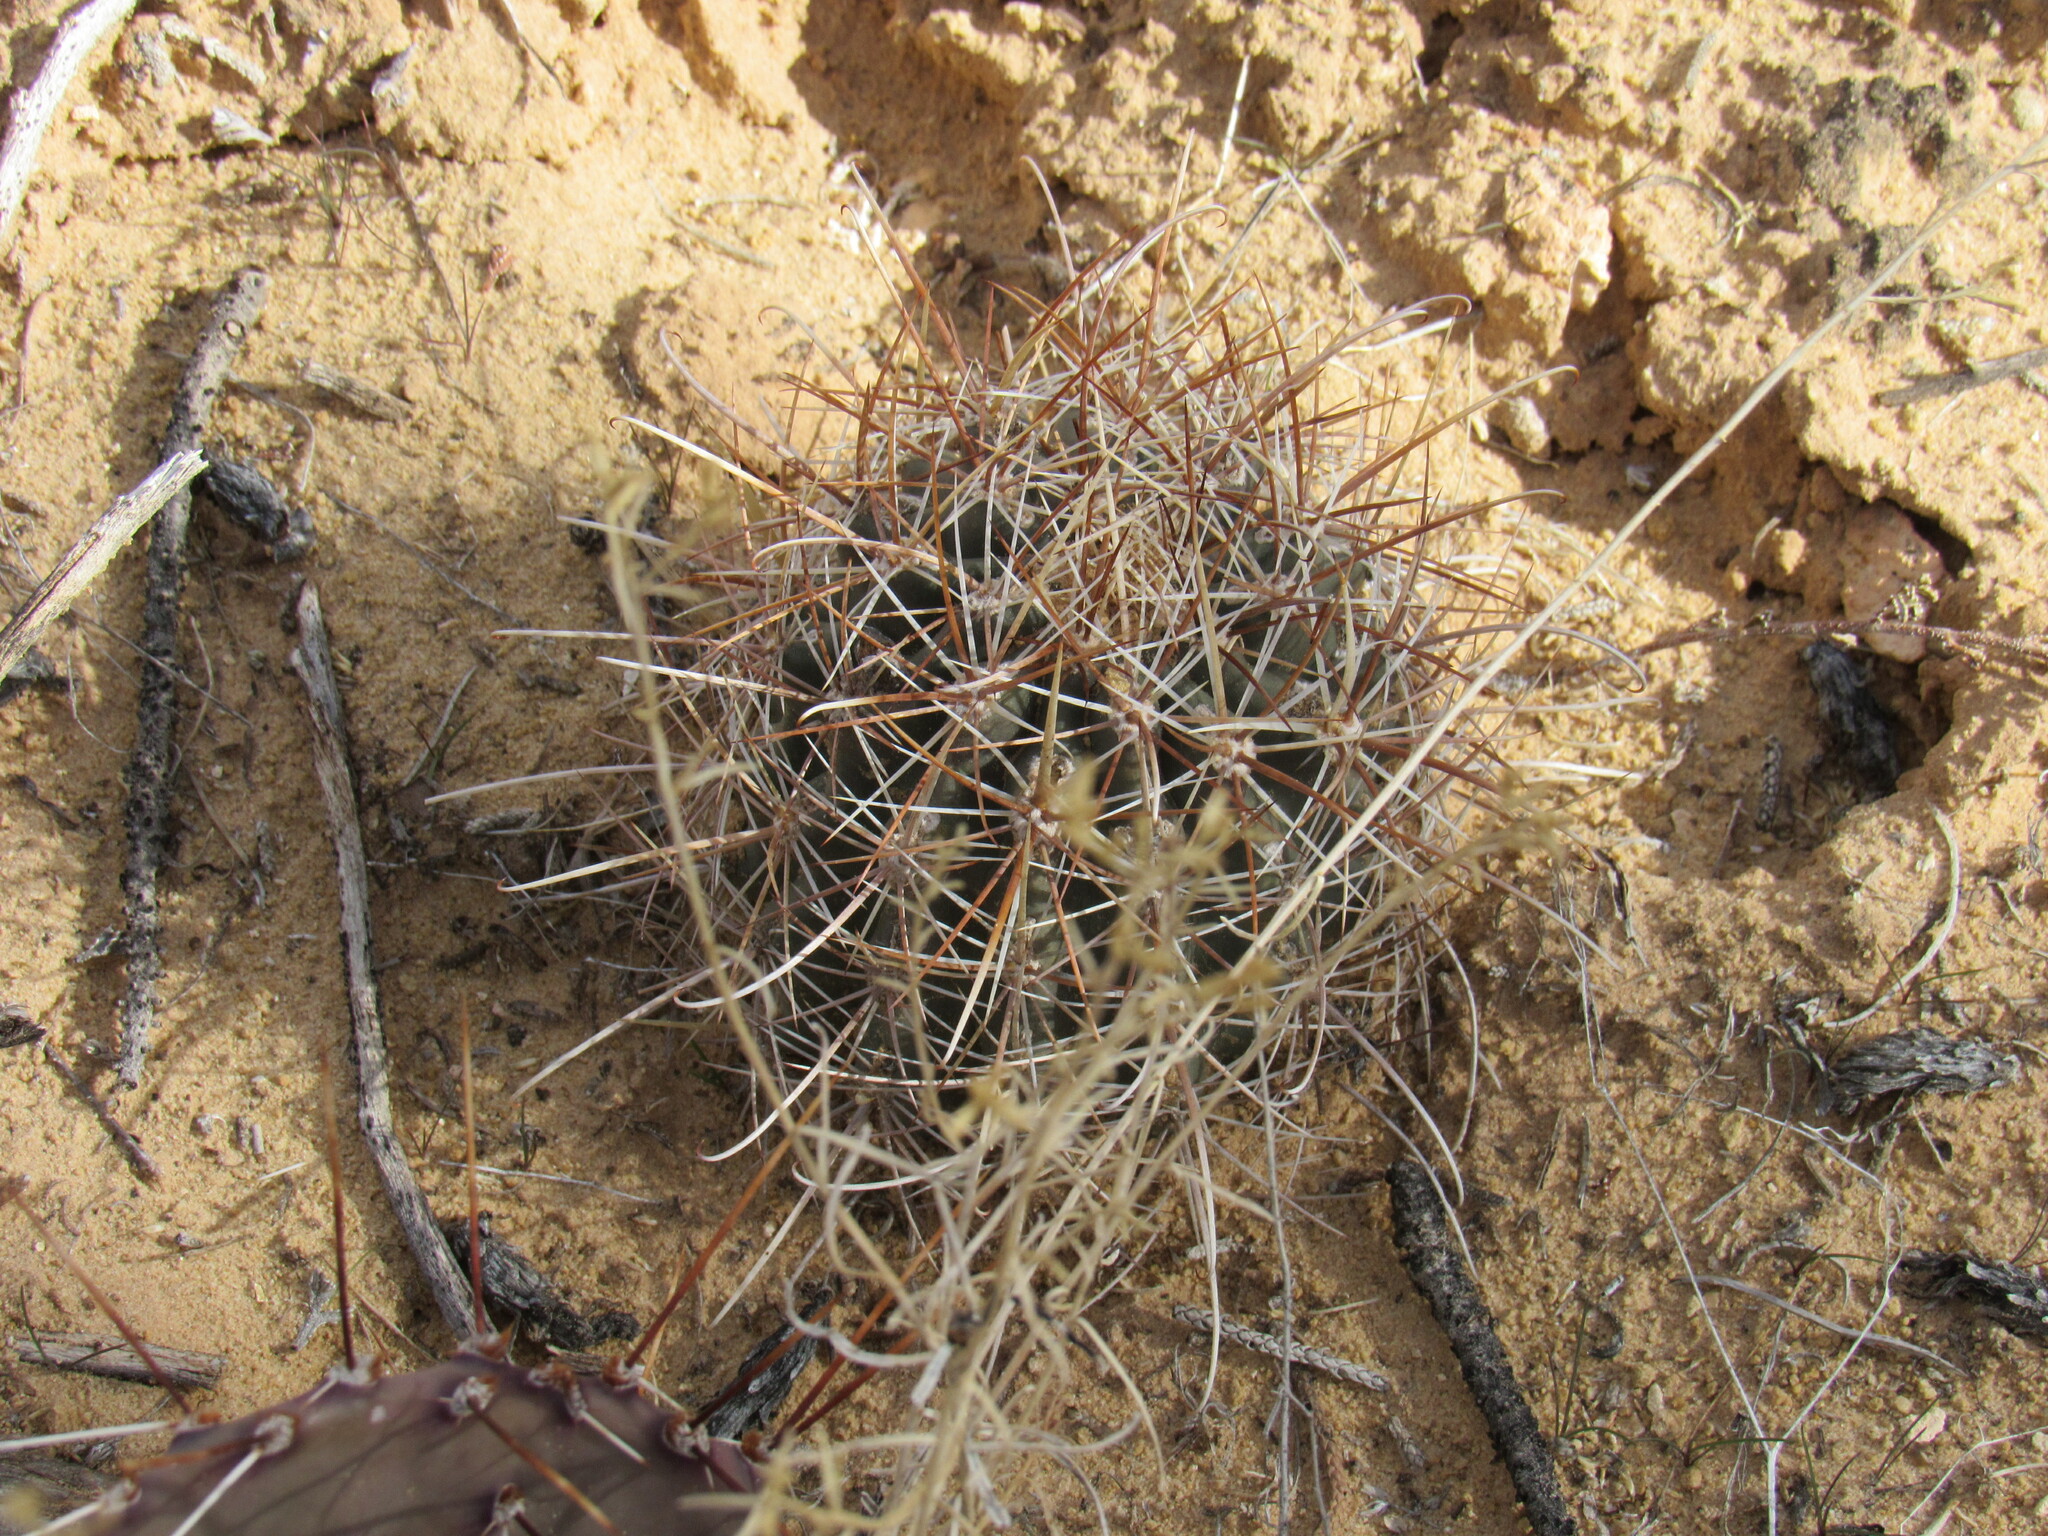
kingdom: Plantae
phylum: Tracheophyta
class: Magnoliopsida
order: Caryophyllales
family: Cactaceae
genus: Sclerocactus
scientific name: Sclerocactus parviflorus
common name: Small-flower fishhook cactus
